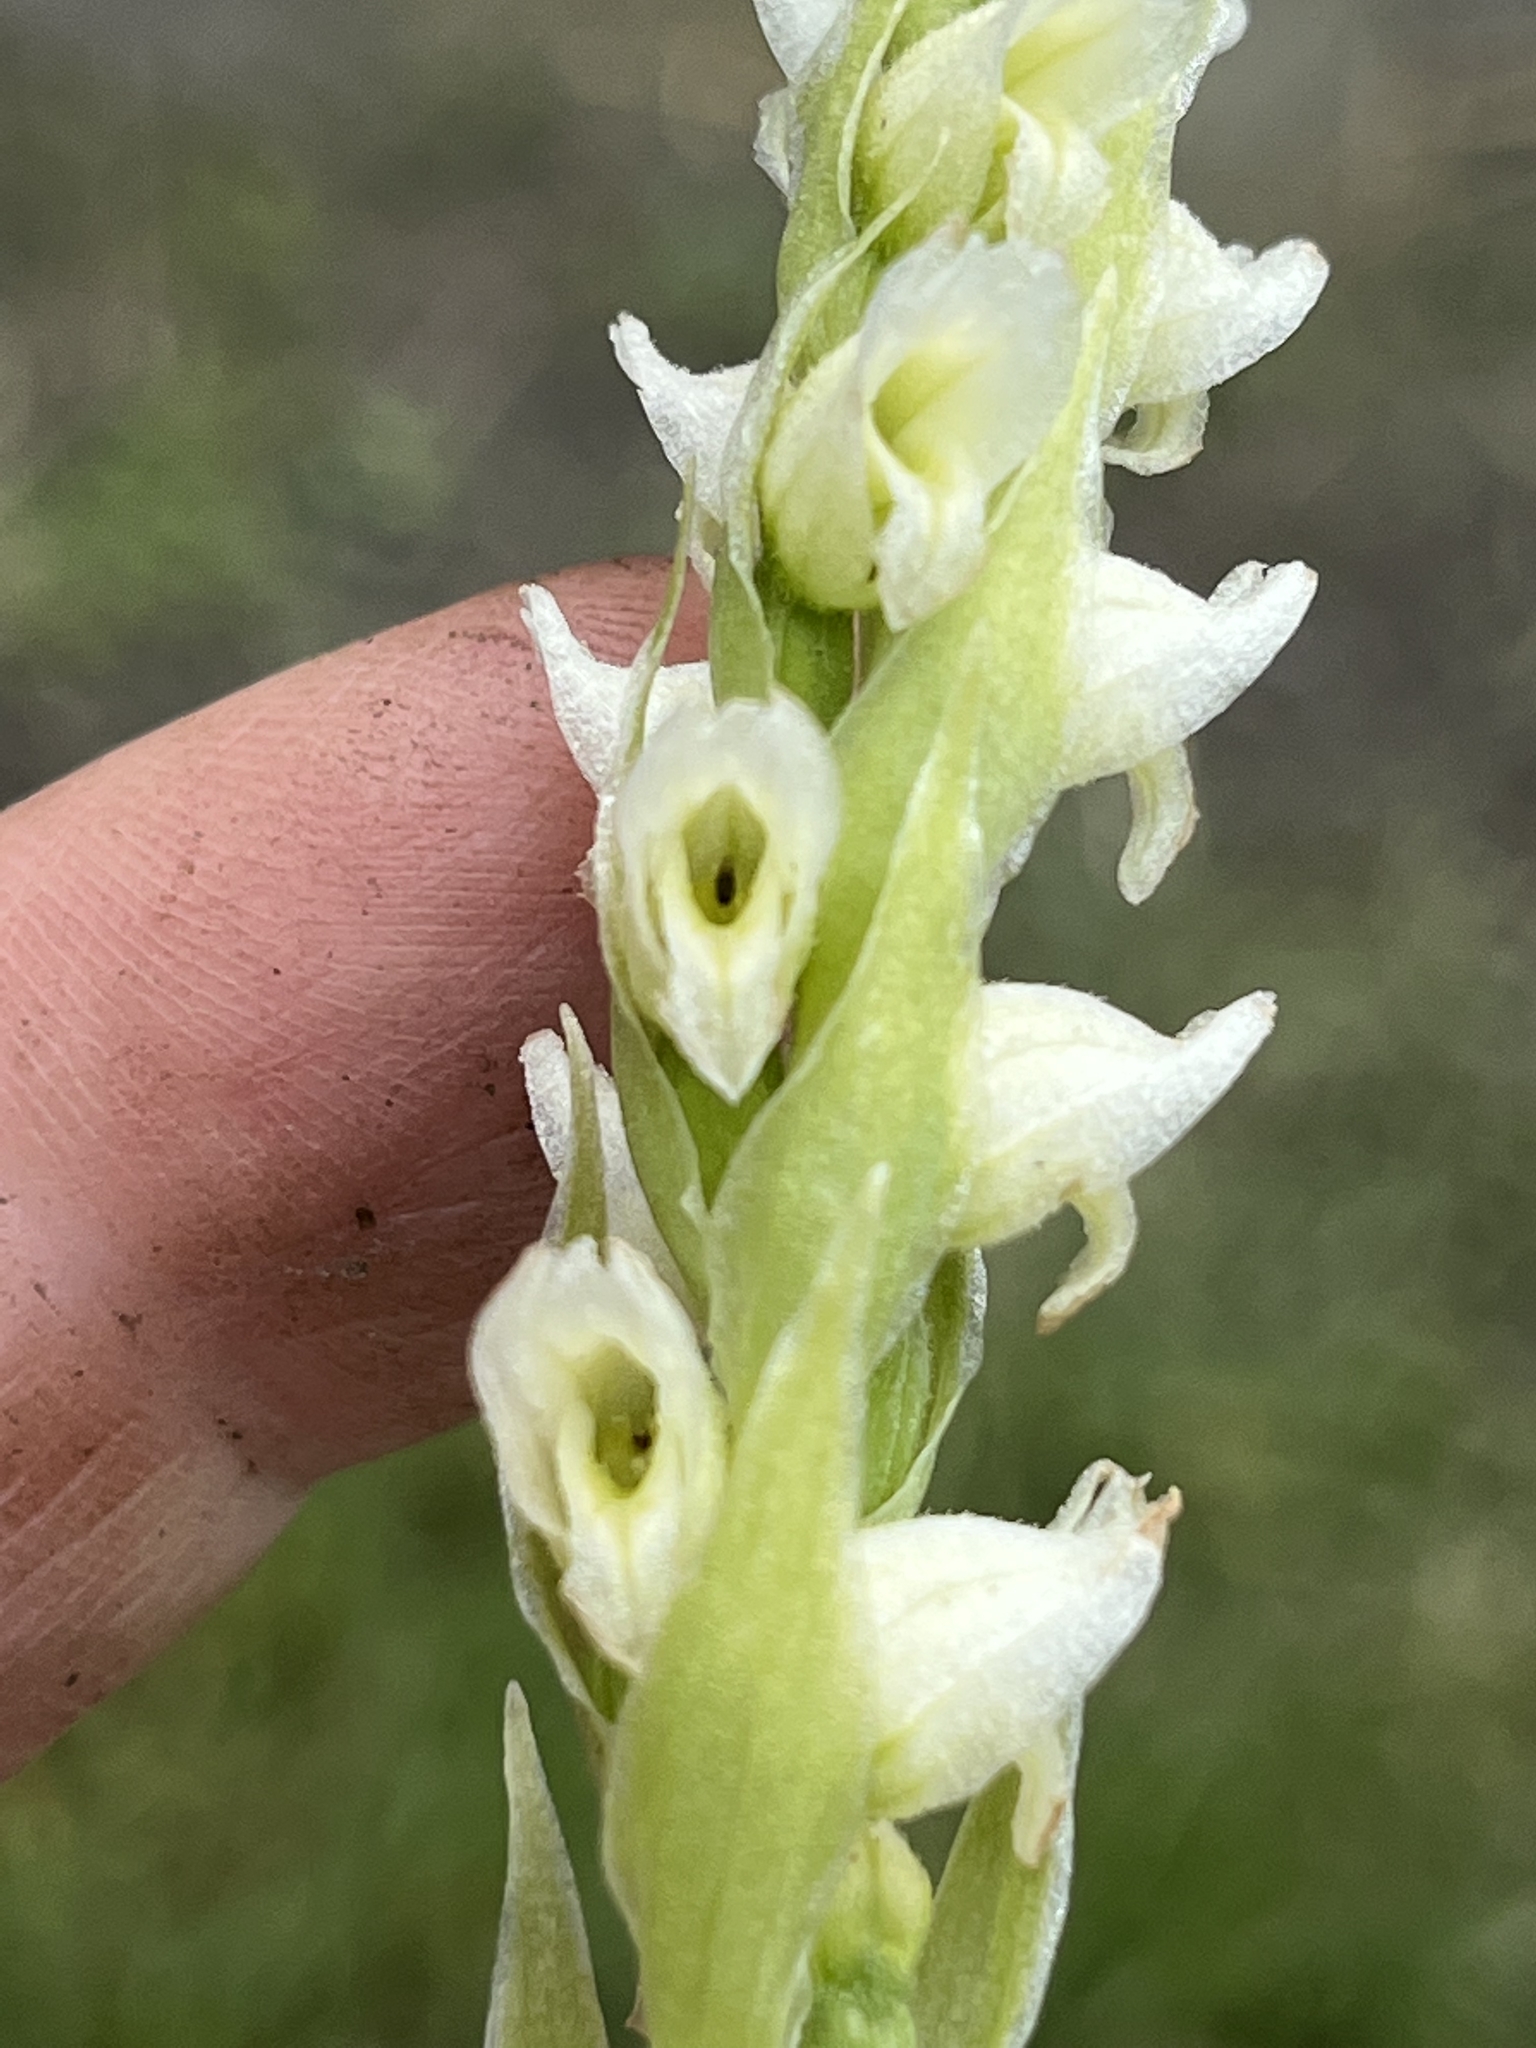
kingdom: Plantae
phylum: Tracheophyta
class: Liliopsida
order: Asparagales
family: Orchidaceae
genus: Spiranthes
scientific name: Spiranthes romanzoffiana
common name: Irish lady's-tresses
